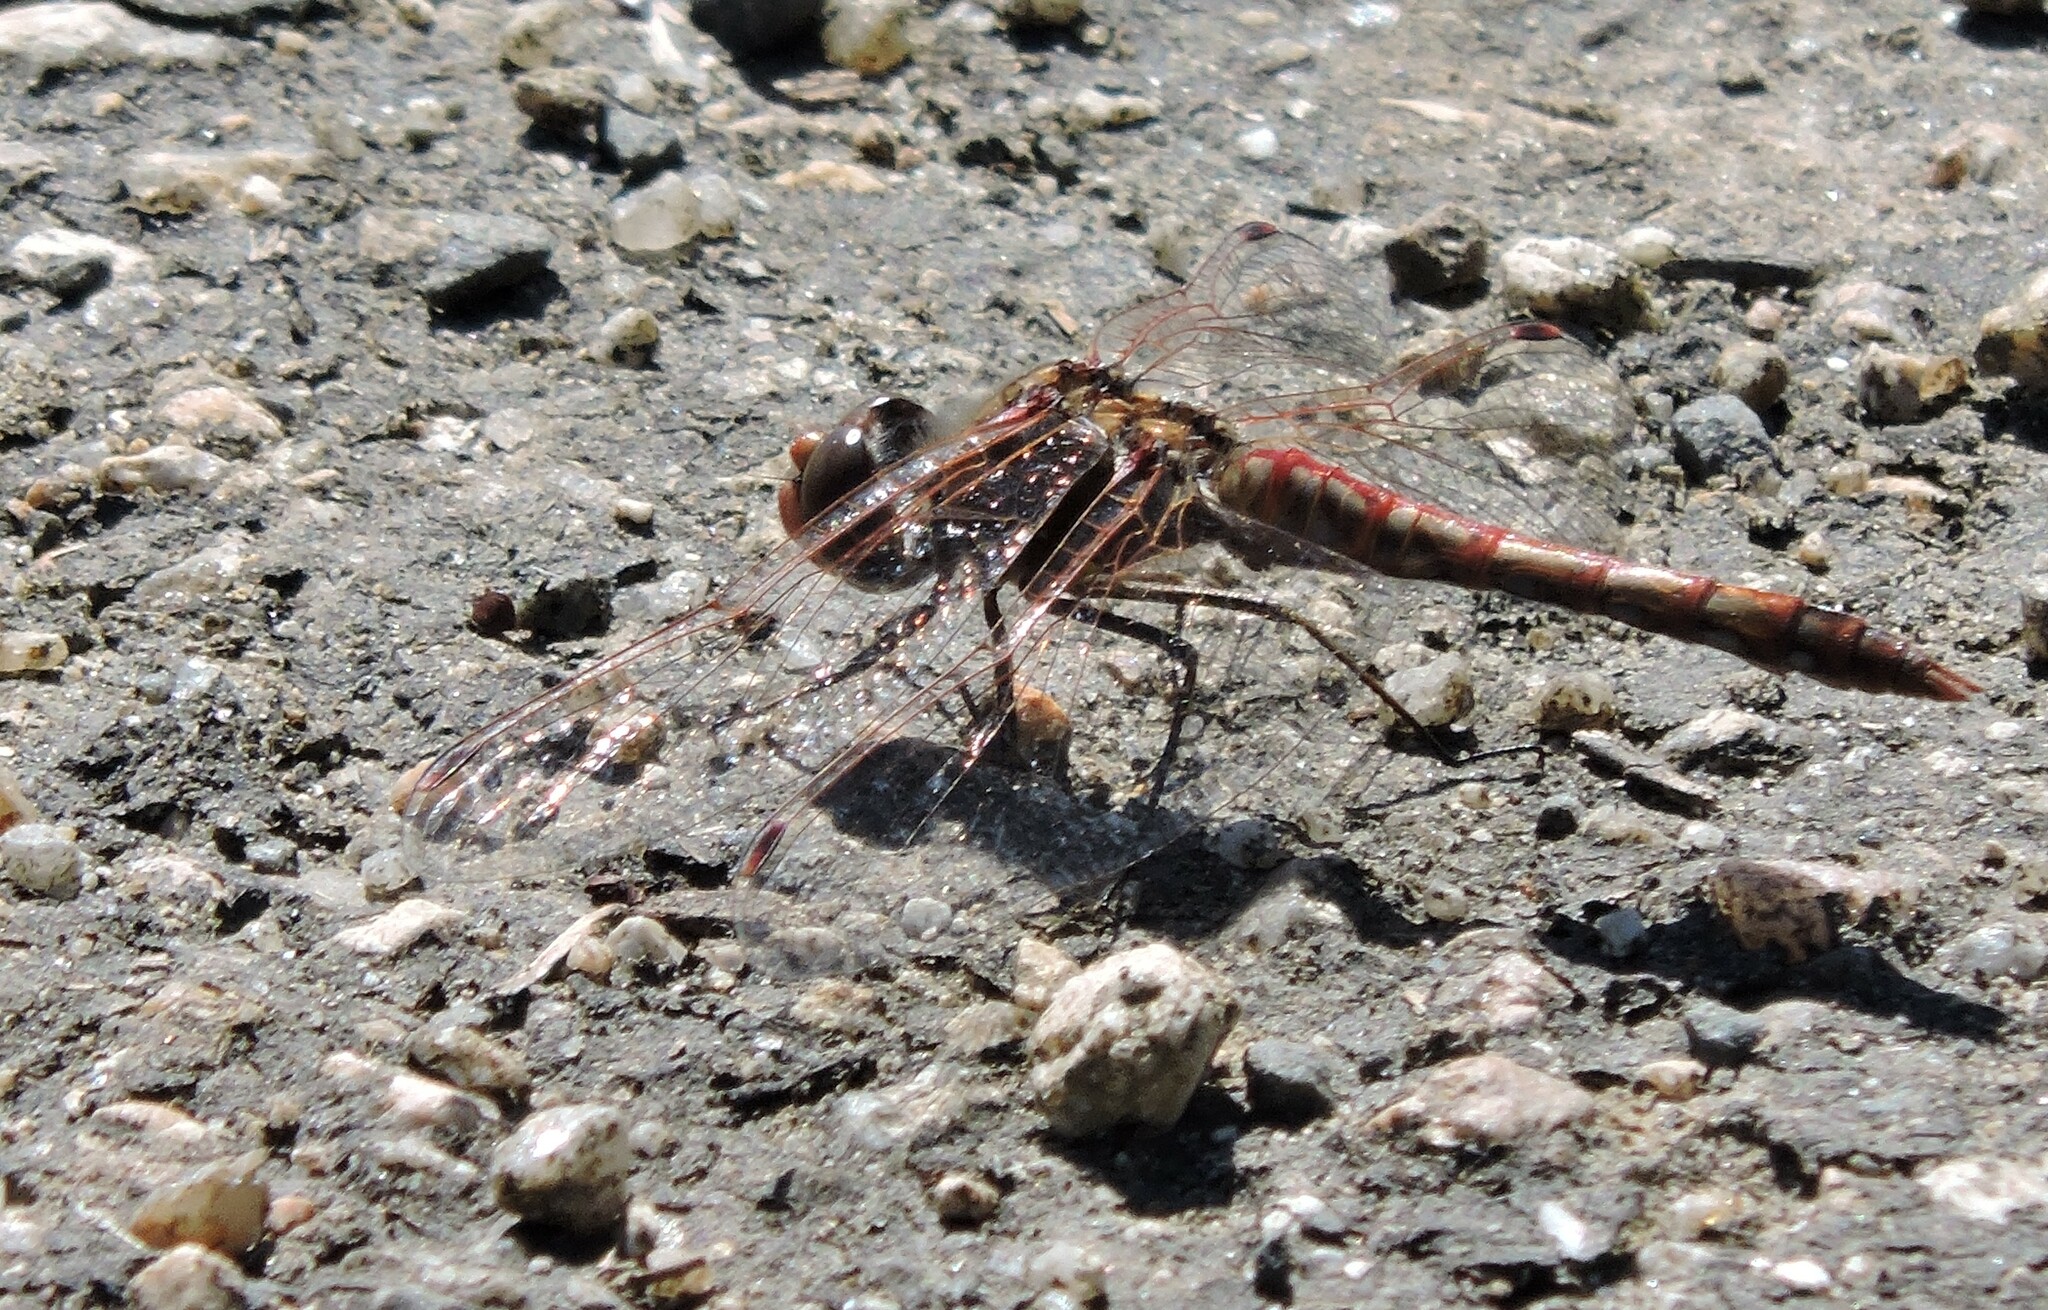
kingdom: Animalia
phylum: Arthropoda
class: Insecta
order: Odonata
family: Libellulidae
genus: Sympetrum
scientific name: Sympetrum corruptum
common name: Variegated meadowhawk
